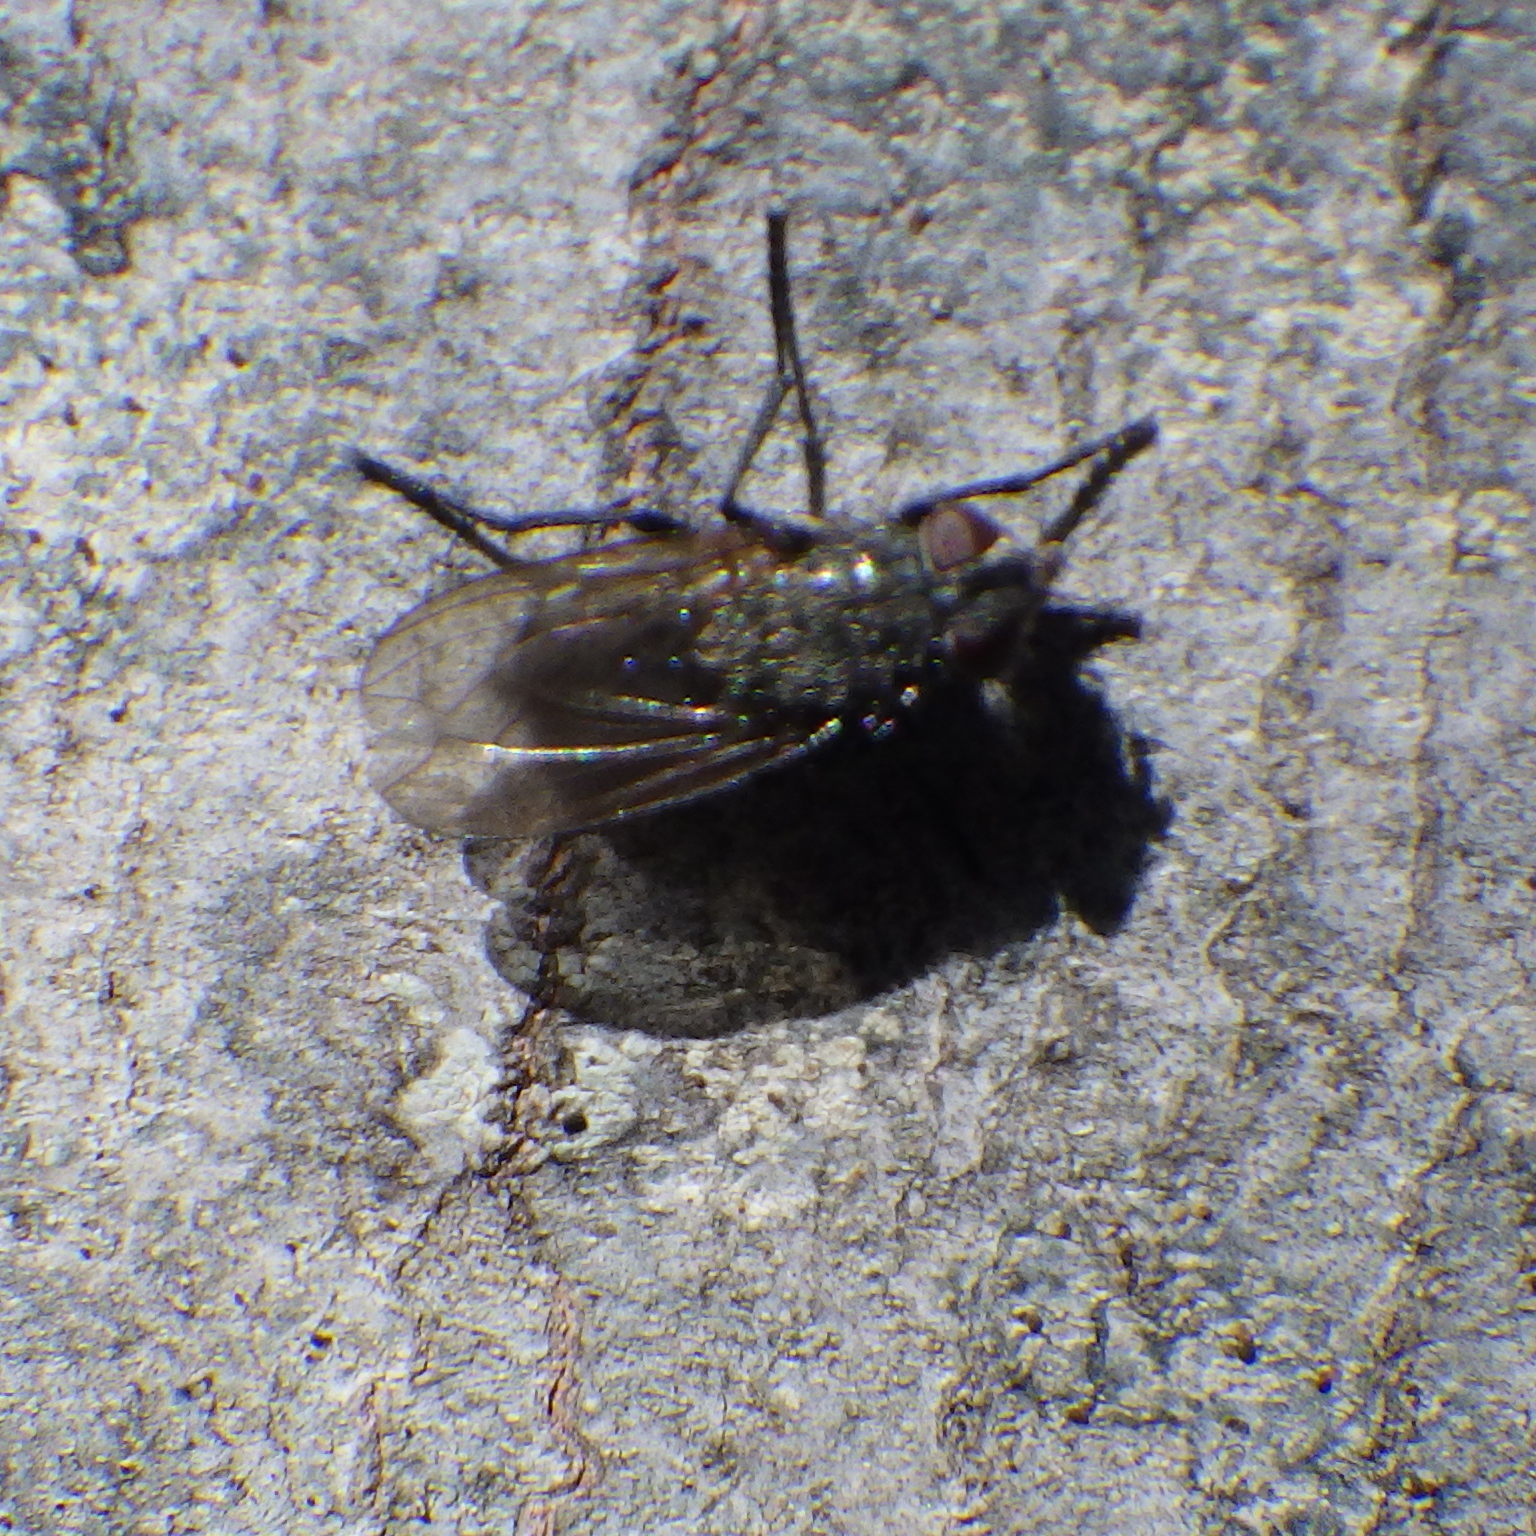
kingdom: Animalia
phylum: Arthropoda
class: Insecta
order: Diptera
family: Polleniidae
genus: Pollenia
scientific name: Pollenia
